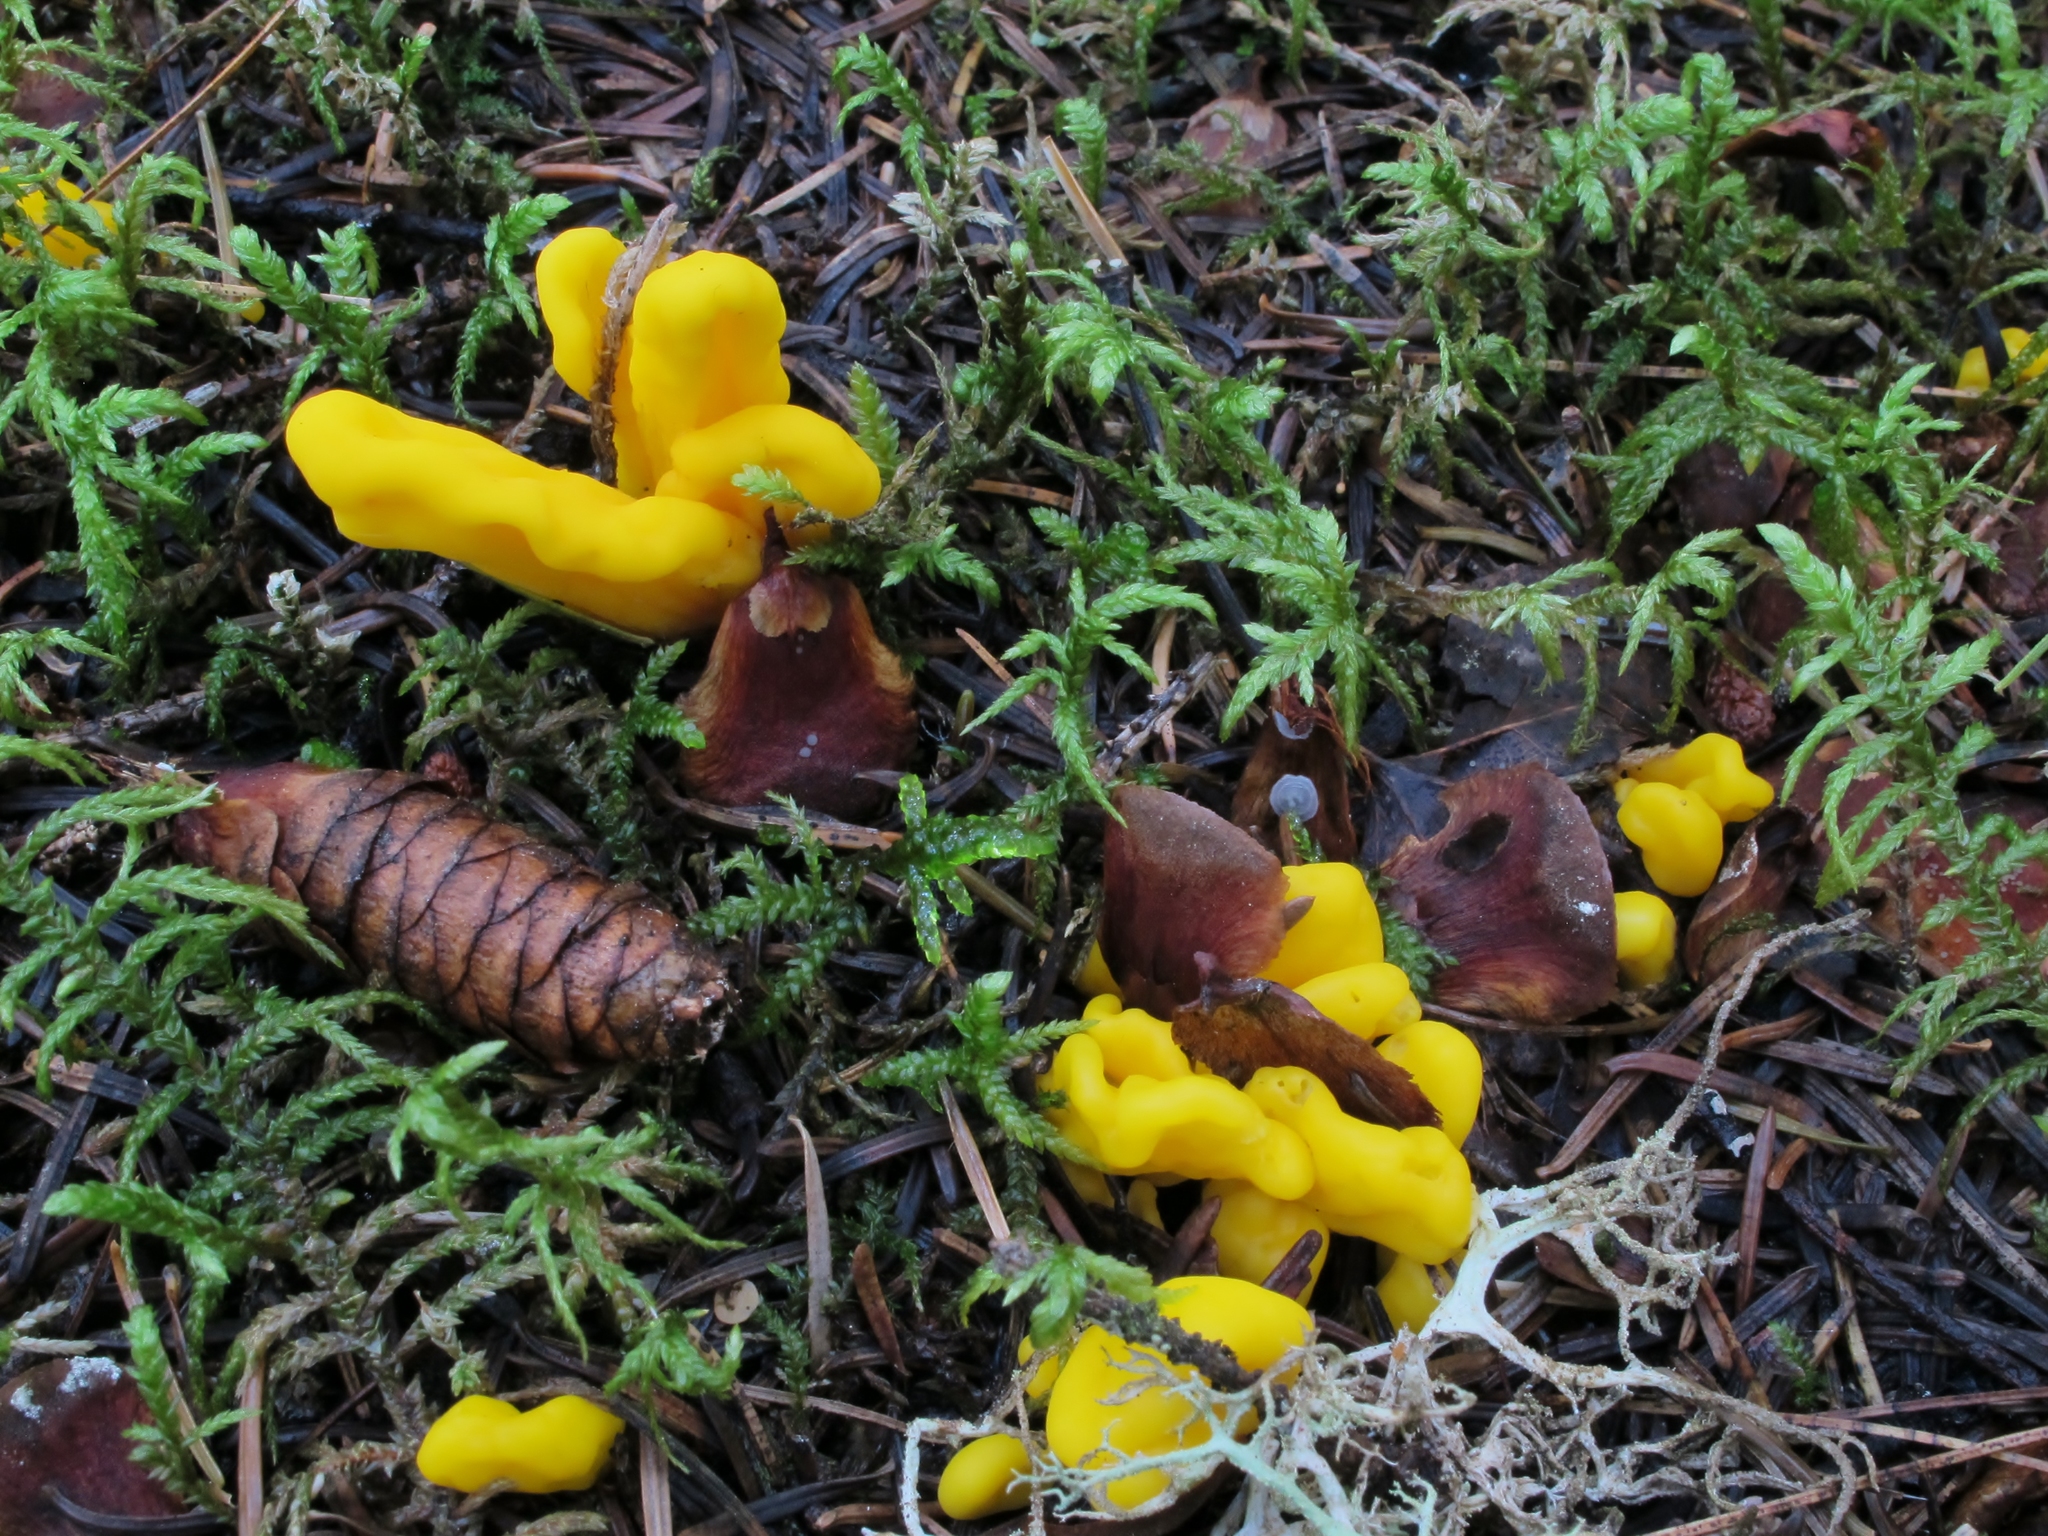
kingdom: Fungi
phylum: Ascomycota
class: Neolectomycetes
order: Neolectales
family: Neolectaceae
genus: Neolecta
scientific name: Neolecta irregularis
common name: Irregular earth tongue
